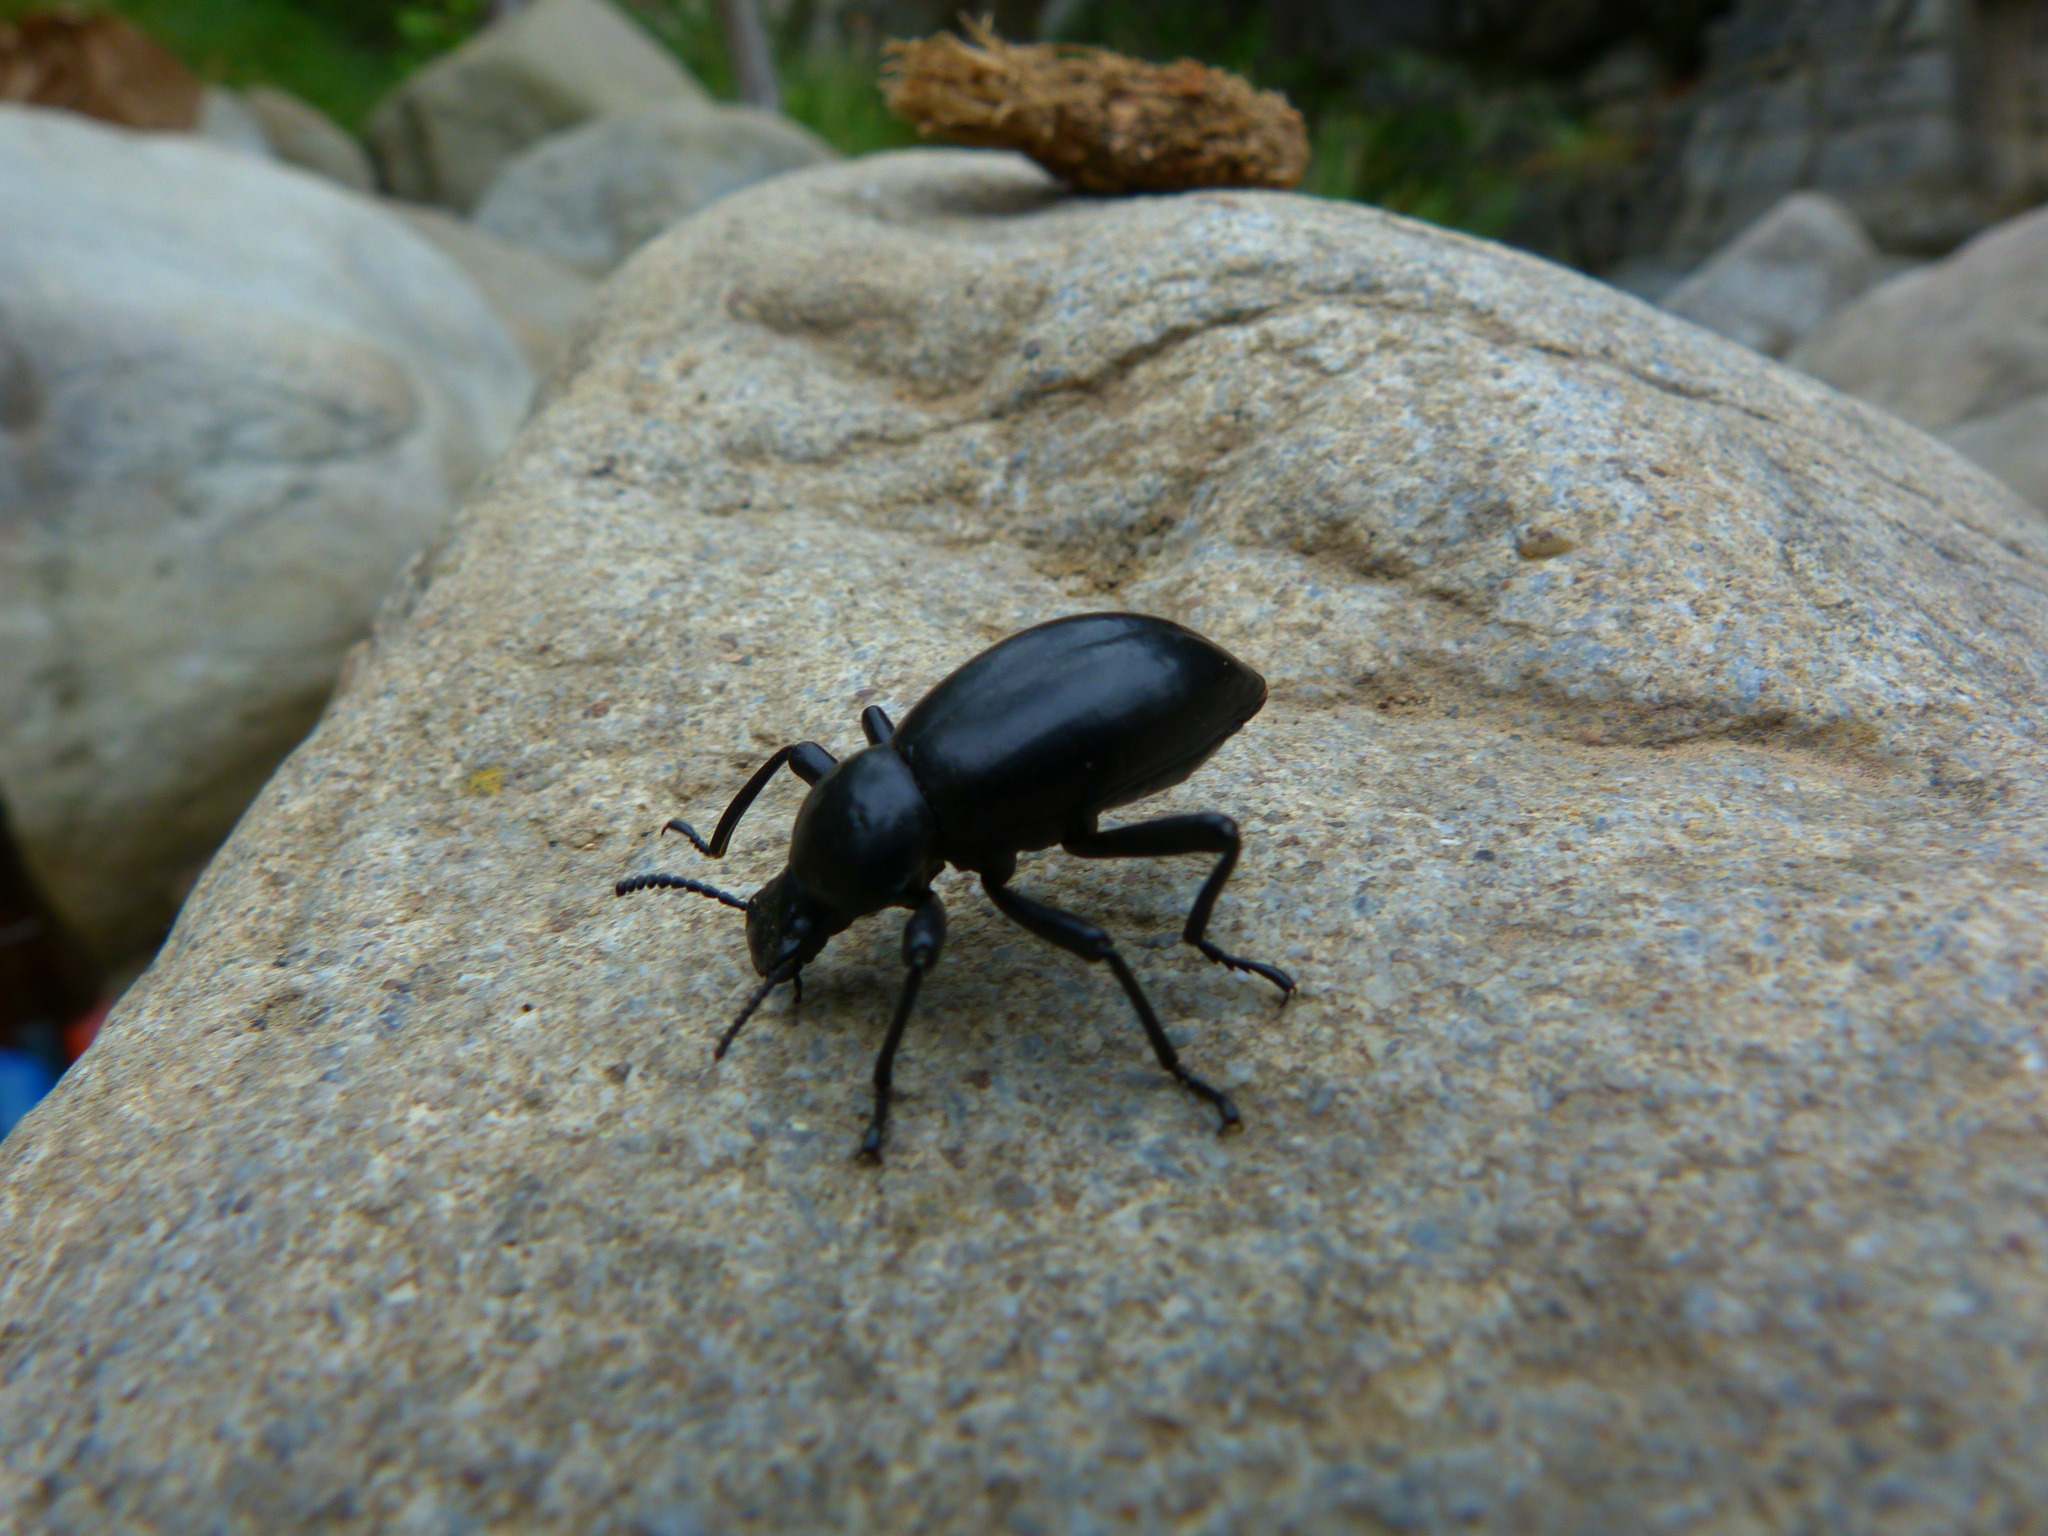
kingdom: Animalia
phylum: Arthropoda
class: Insecta
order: Coleoptera
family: Tenebrionidae
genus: Coelocnemis
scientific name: Coelocnemis magna
